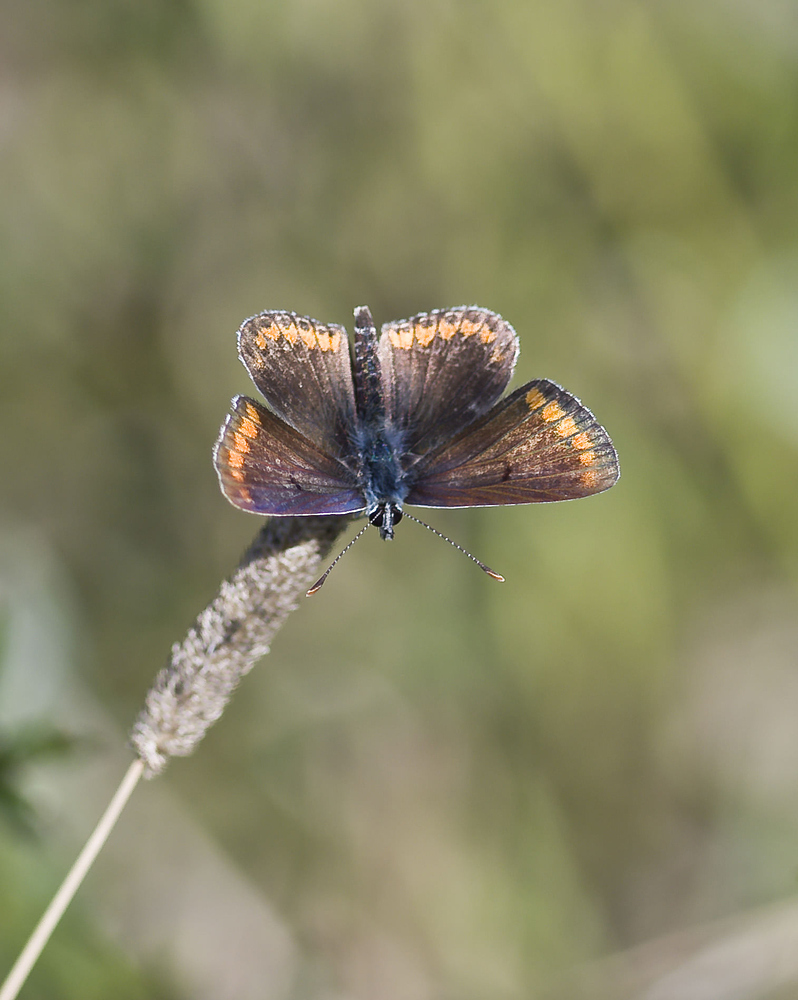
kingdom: Animalia
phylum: Arthropoda
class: Insecta
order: Lepidoptera
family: Lycaenidae
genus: Aricia
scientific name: Aricia agestis
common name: Brown argus
